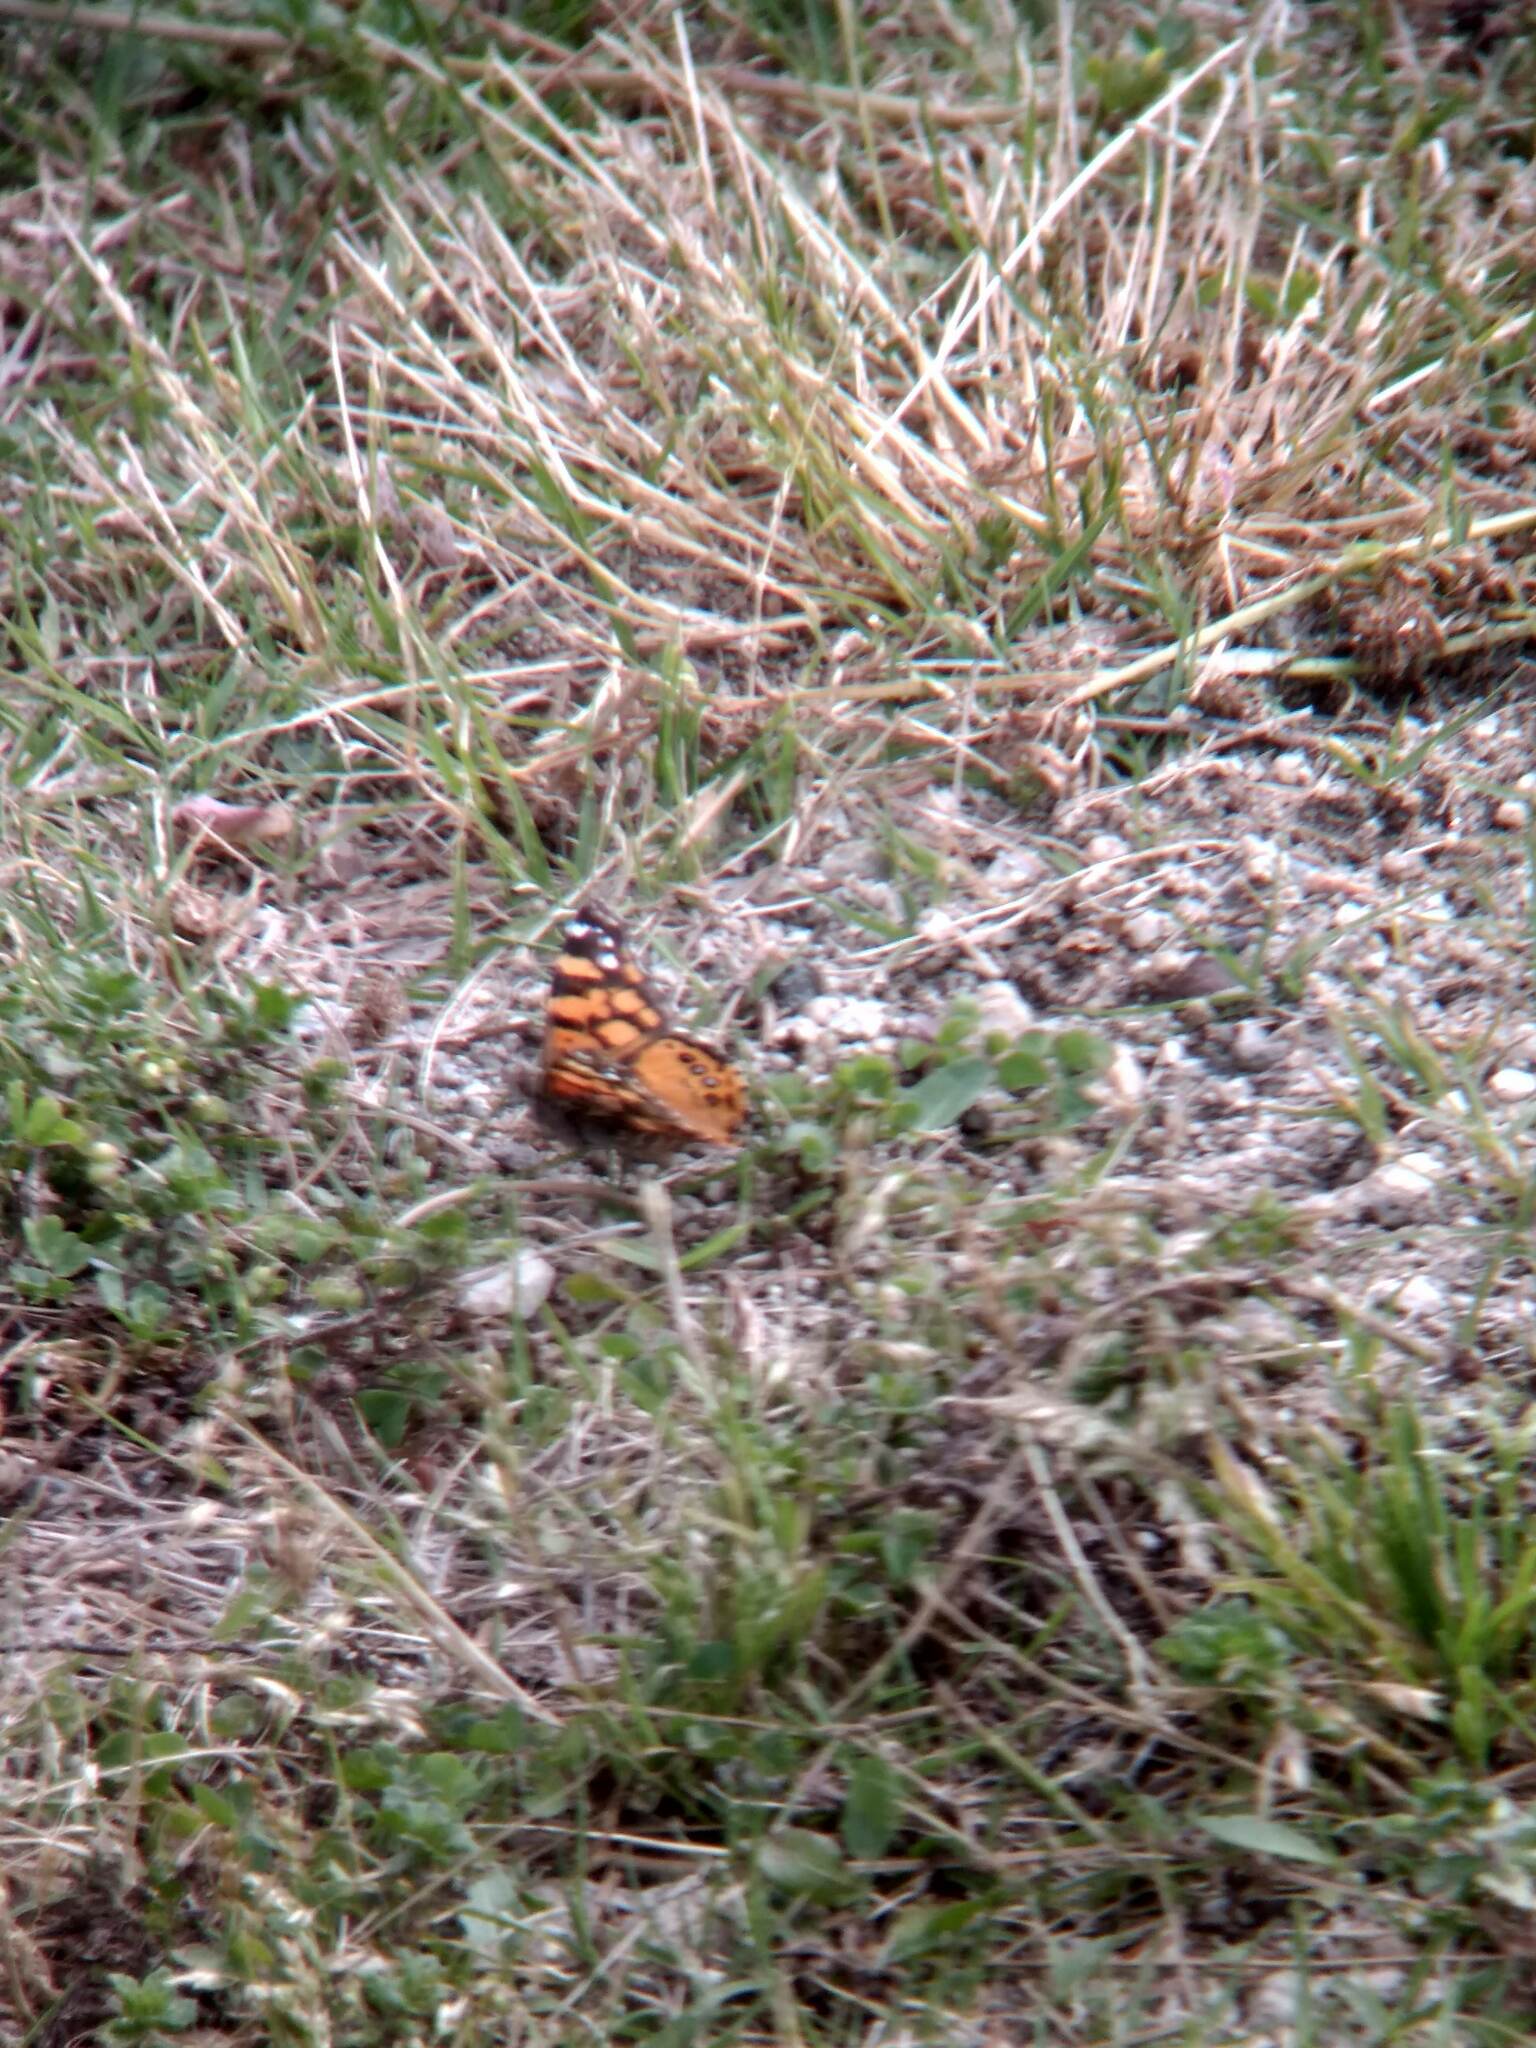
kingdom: Animalia
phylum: Arthropoda
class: Insecta
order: Lepidoptera
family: Nymphalidae
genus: Vanessa
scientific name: Vanessa annabella
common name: West coast lady
